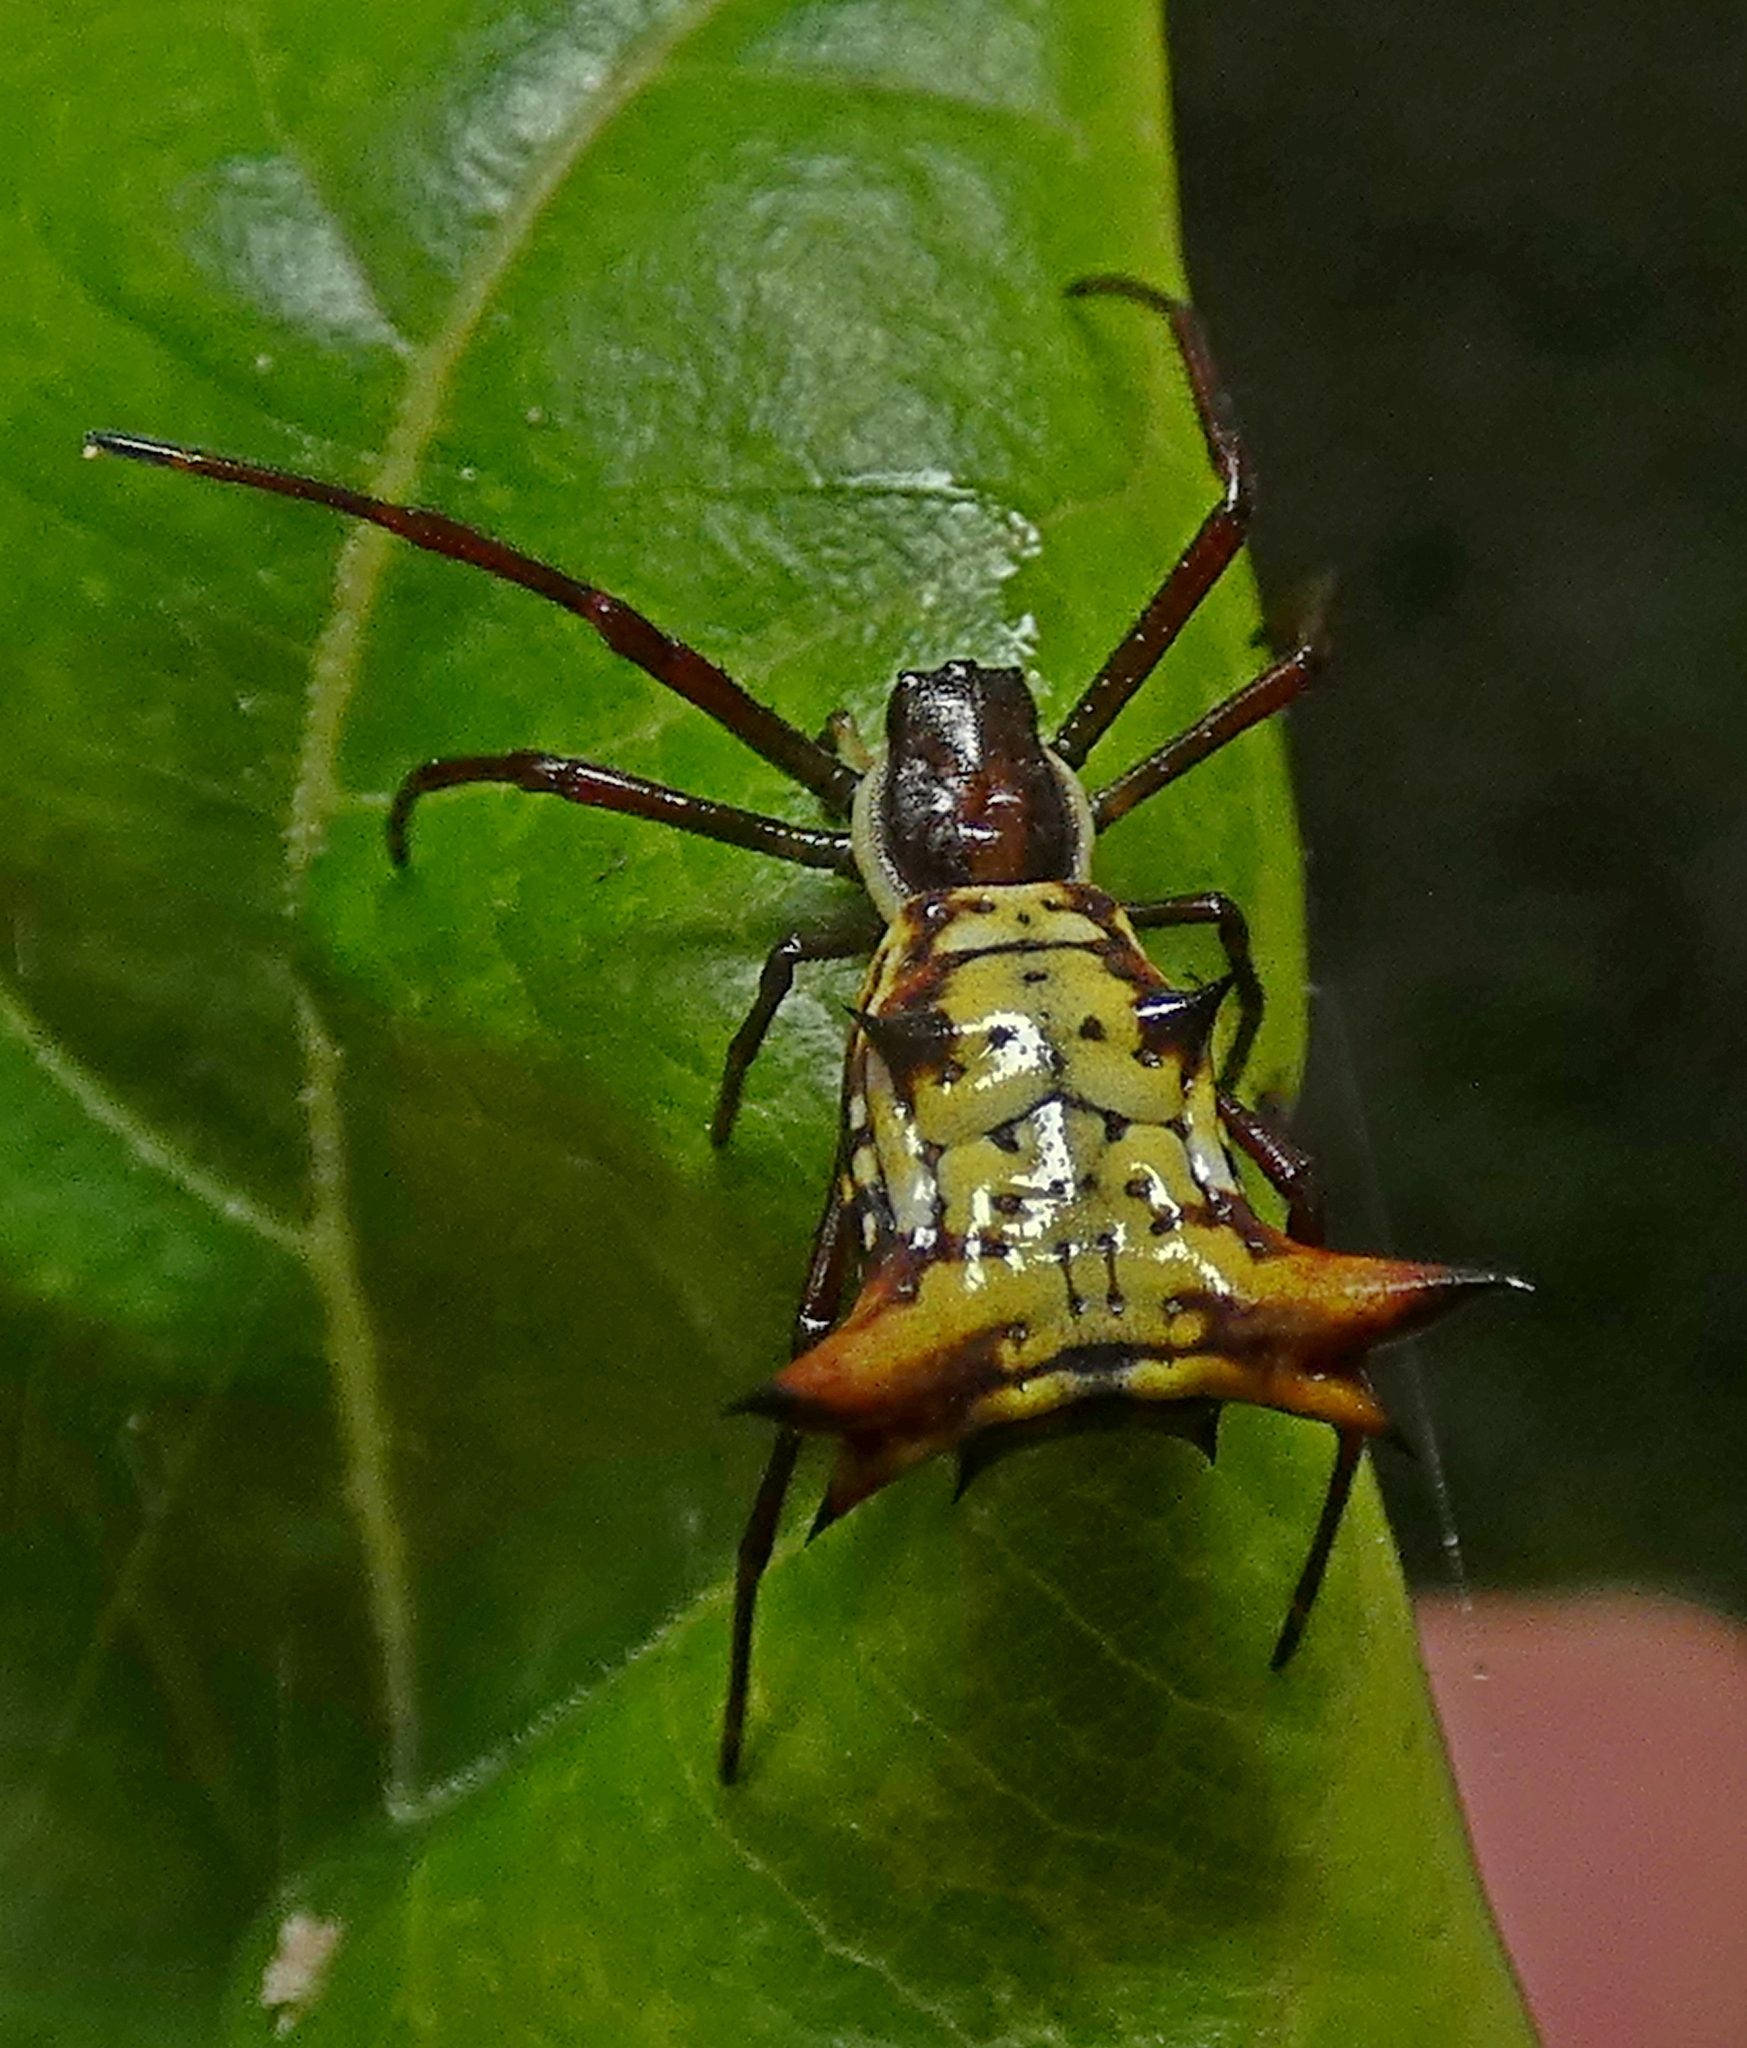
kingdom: Animalia
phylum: Arthropoda
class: Arachnida
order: Araneae
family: Araneidae
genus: Micrathena
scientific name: Micrathena fissispina
